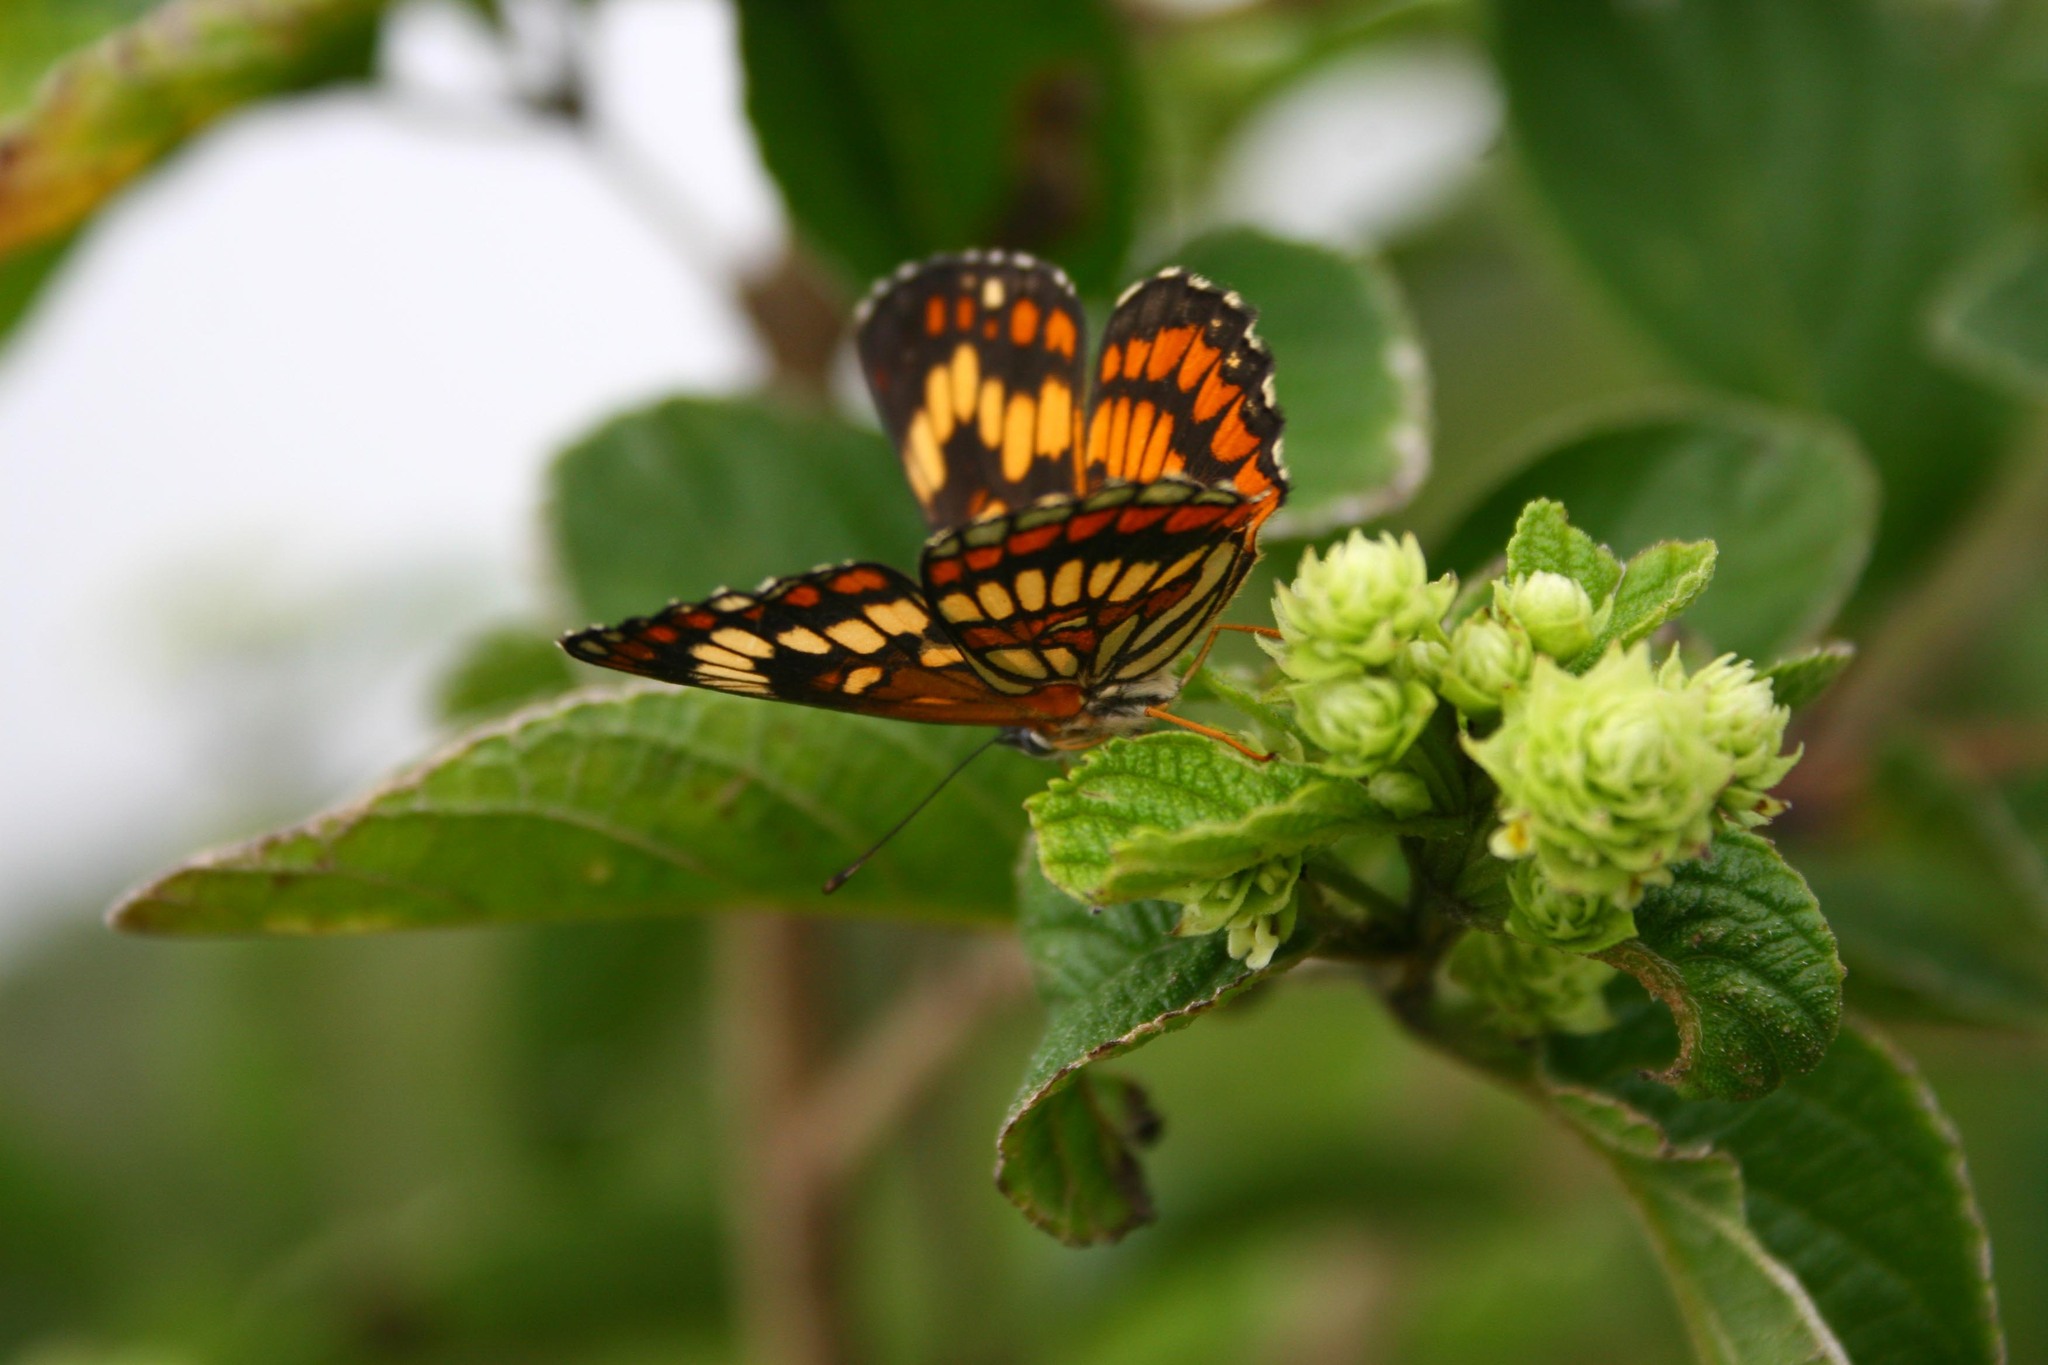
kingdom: Animalia
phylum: Arthropoda
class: Insecta
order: Lepidoptera
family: Nymphalidae
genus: Thessalia
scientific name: Thessalia theona
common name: Nymphalid moth
